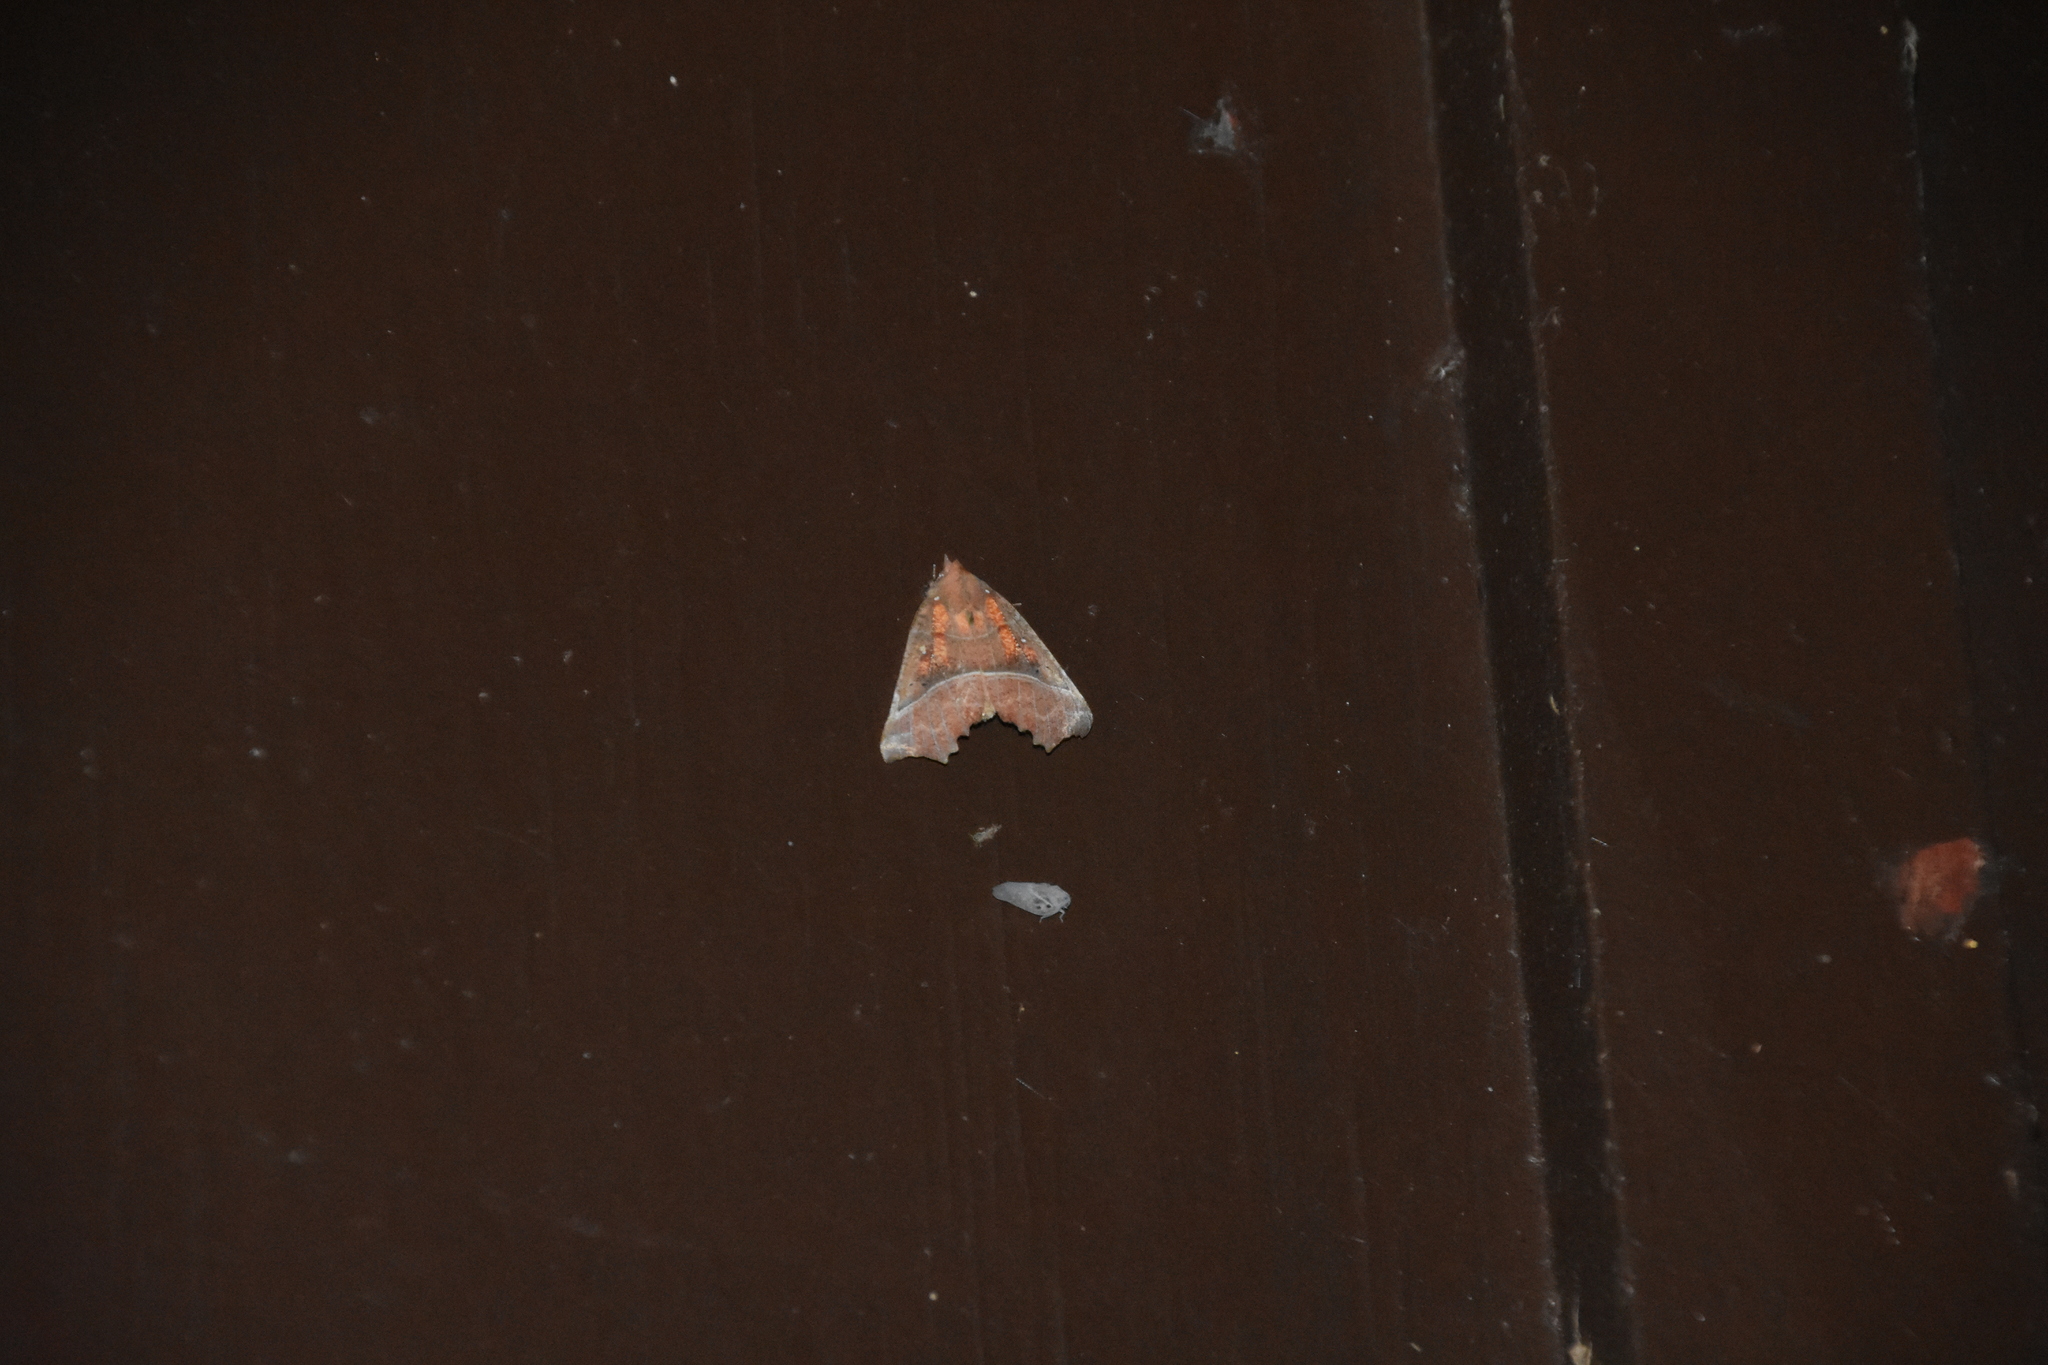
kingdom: Animalia
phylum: Arthropoda
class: Insecta
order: Lepidoptera
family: Erebidae
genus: Scoliopteryx
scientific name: Scoliopteryx libatrix
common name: Herald
